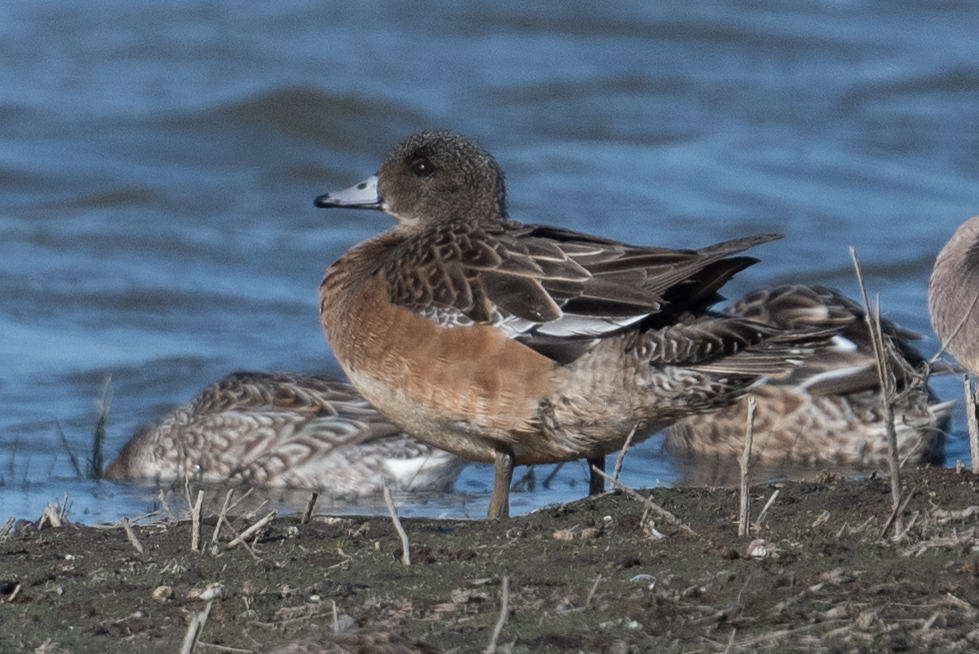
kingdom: Animalia
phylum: Chordata
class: Aves
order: Anseriformes
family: Anatidae
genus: Mareca
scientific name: Mareca americana
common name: American wigeon
